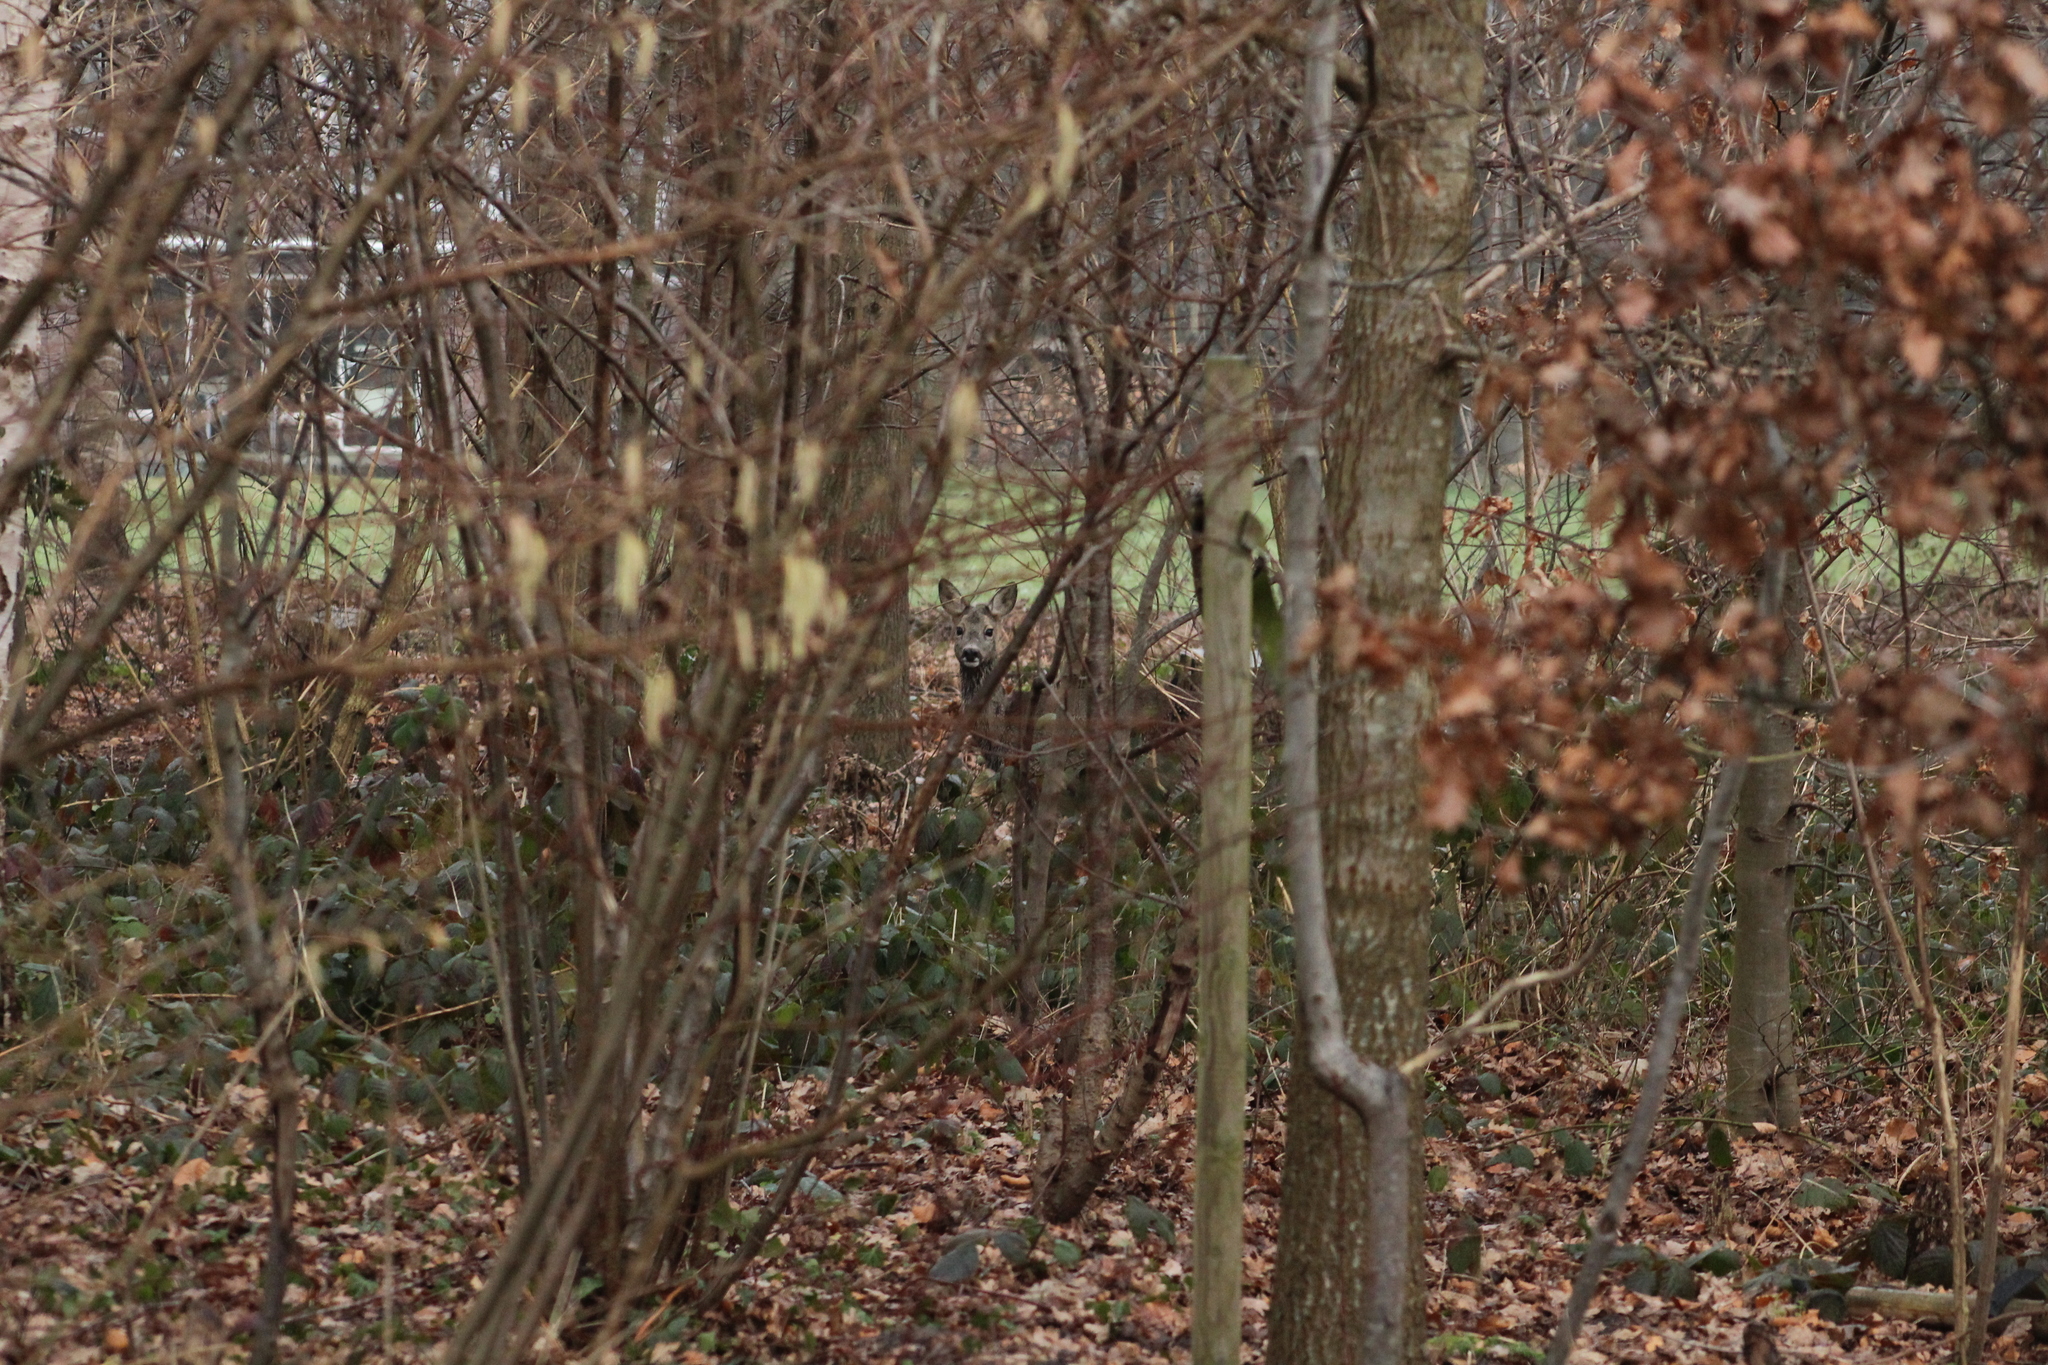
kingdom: Animalia
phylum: Chordata
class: Mammalia
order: Artiodactyla
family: Cervidae
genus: Capreolus
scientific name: Capreolus capreolus
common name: Western roe deer
